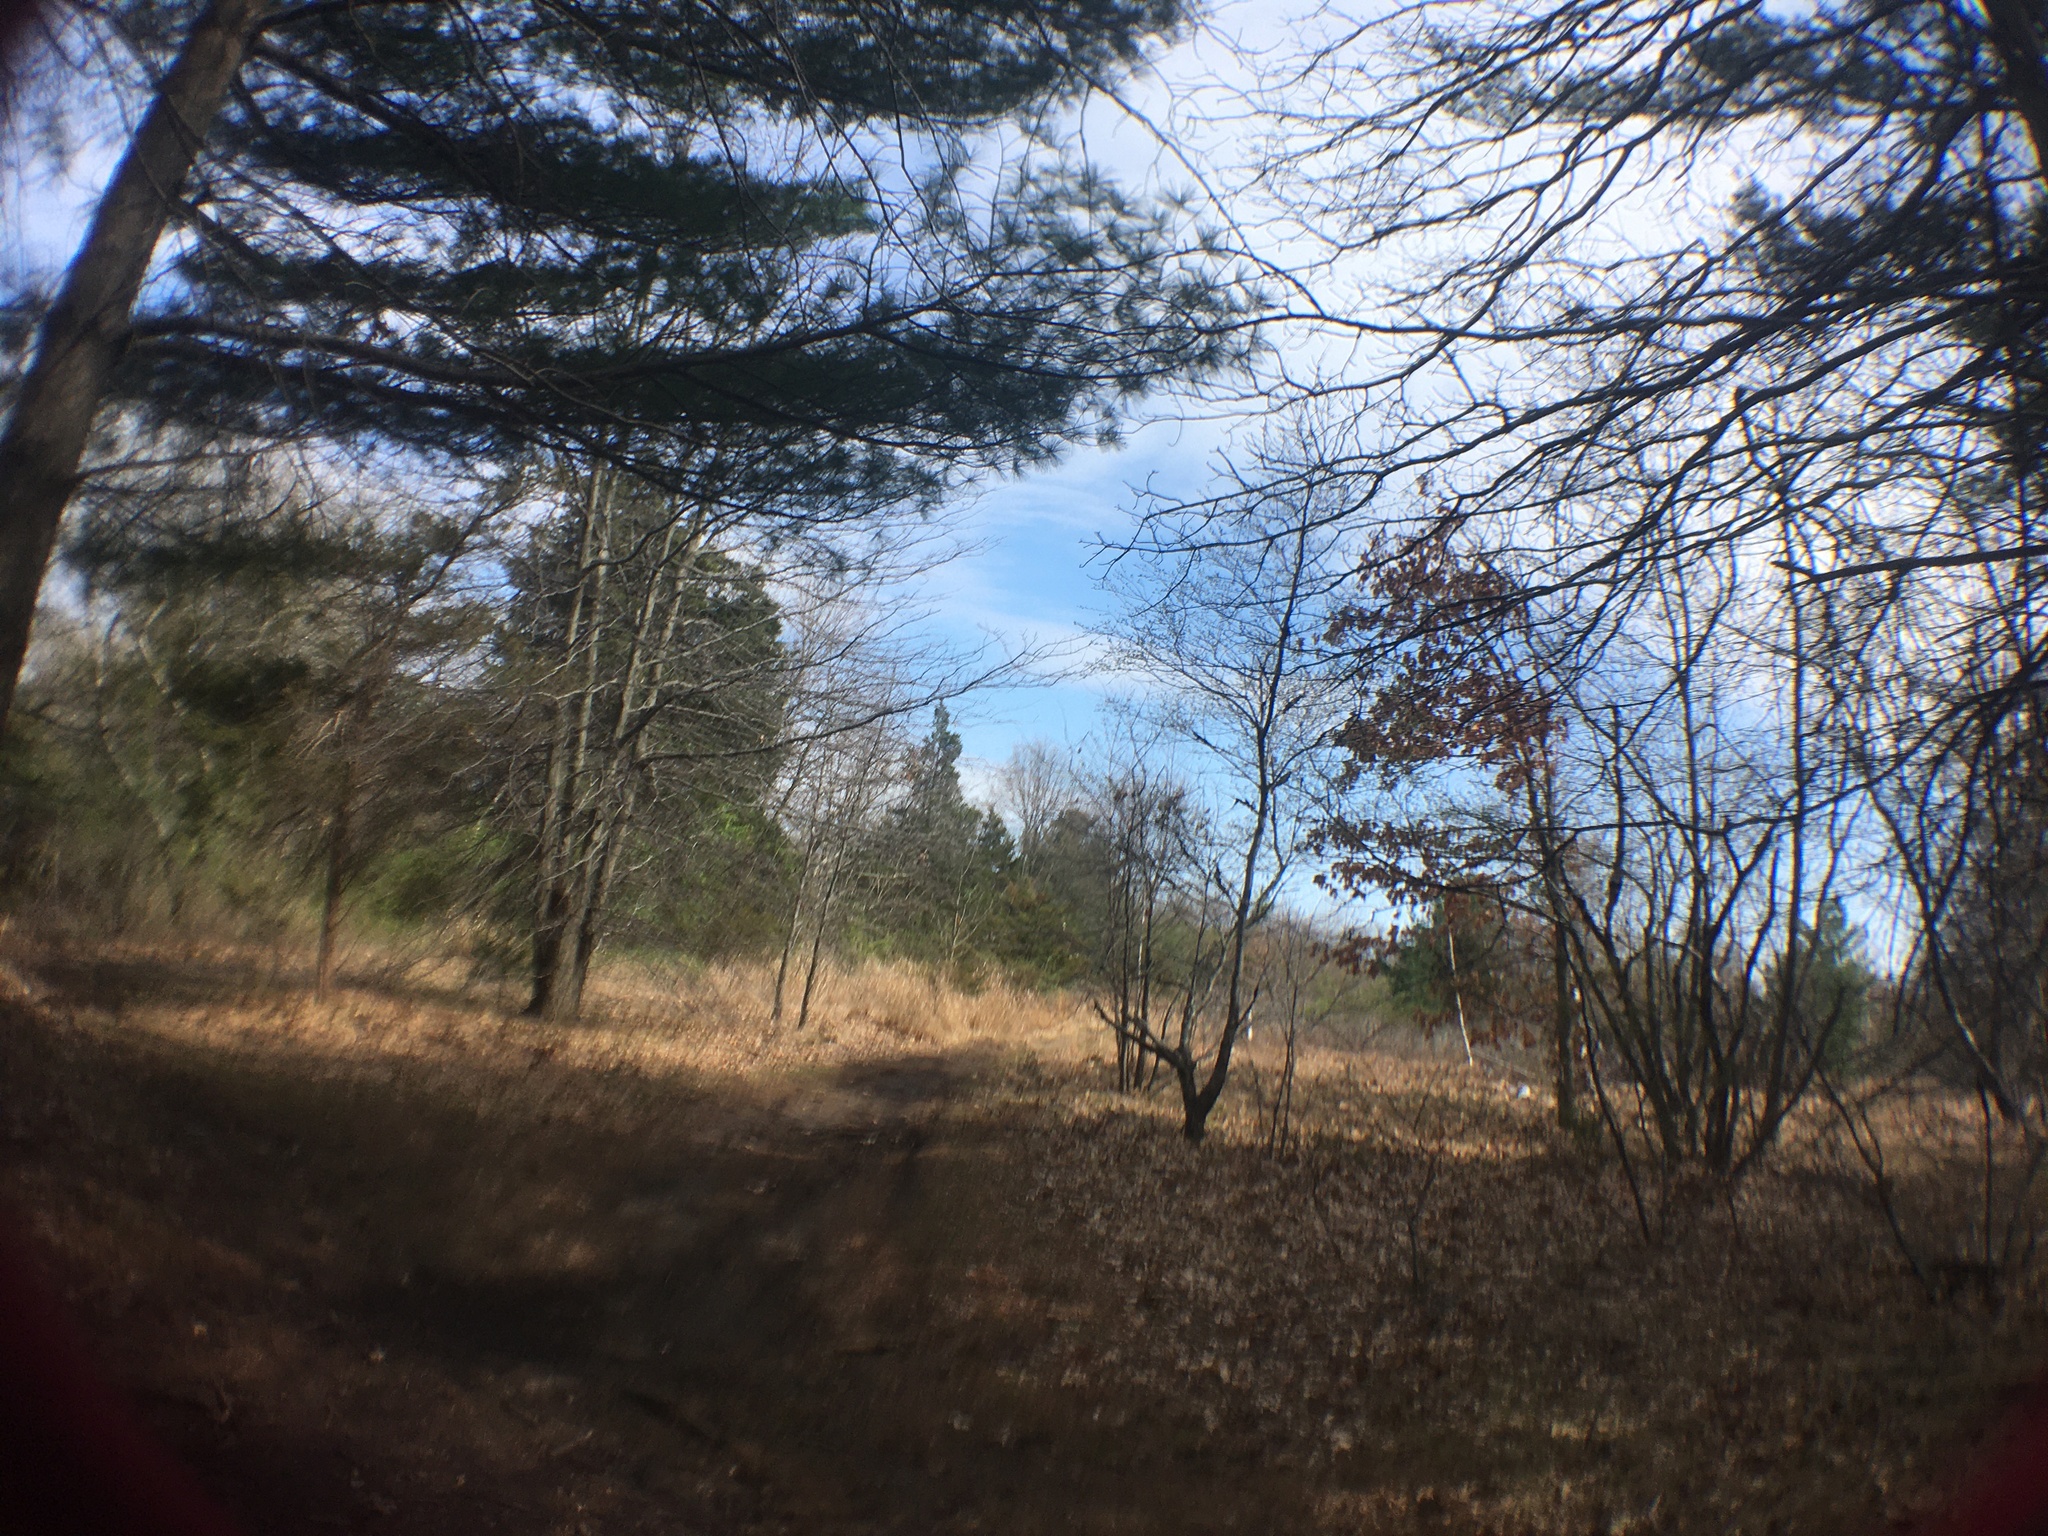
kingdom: Plantae
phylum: Tracheophyta
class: Pinopsida
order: Pinales
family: Pinaceae
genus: Pinus
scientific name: Pinus strobus
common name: Weymouth pine
